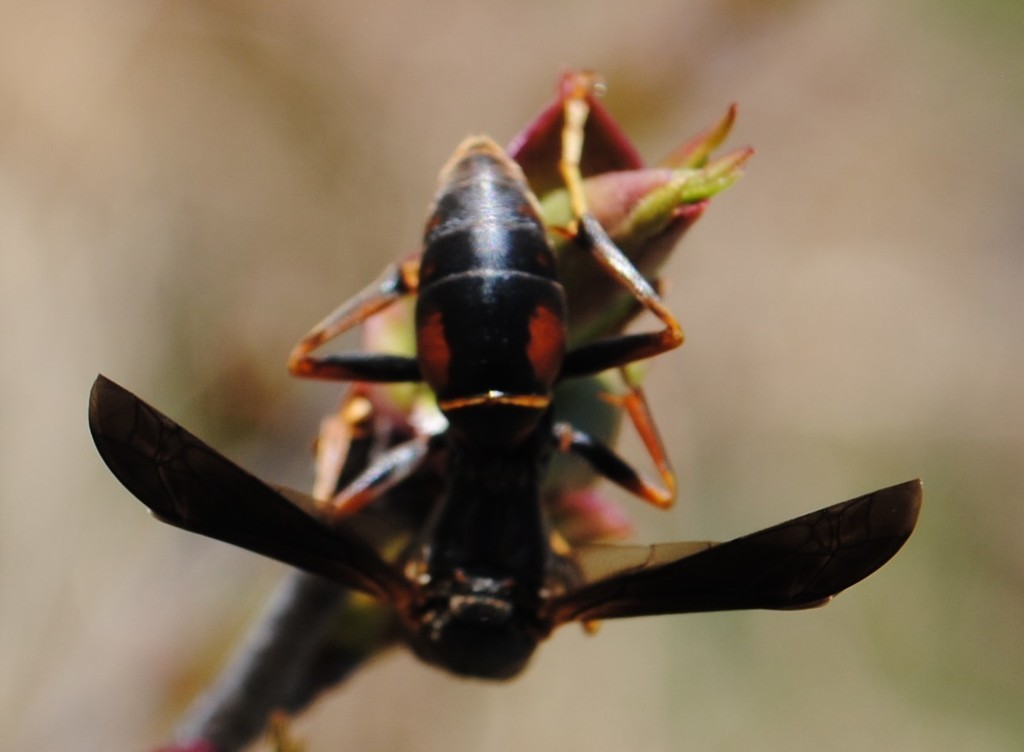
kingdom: Animalia
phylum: Arthropoda
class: Insecta
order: Hymenoptera
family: Eumenidae
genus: Polistes
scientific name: Polistes fuscatus
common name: Dark paper wasp
